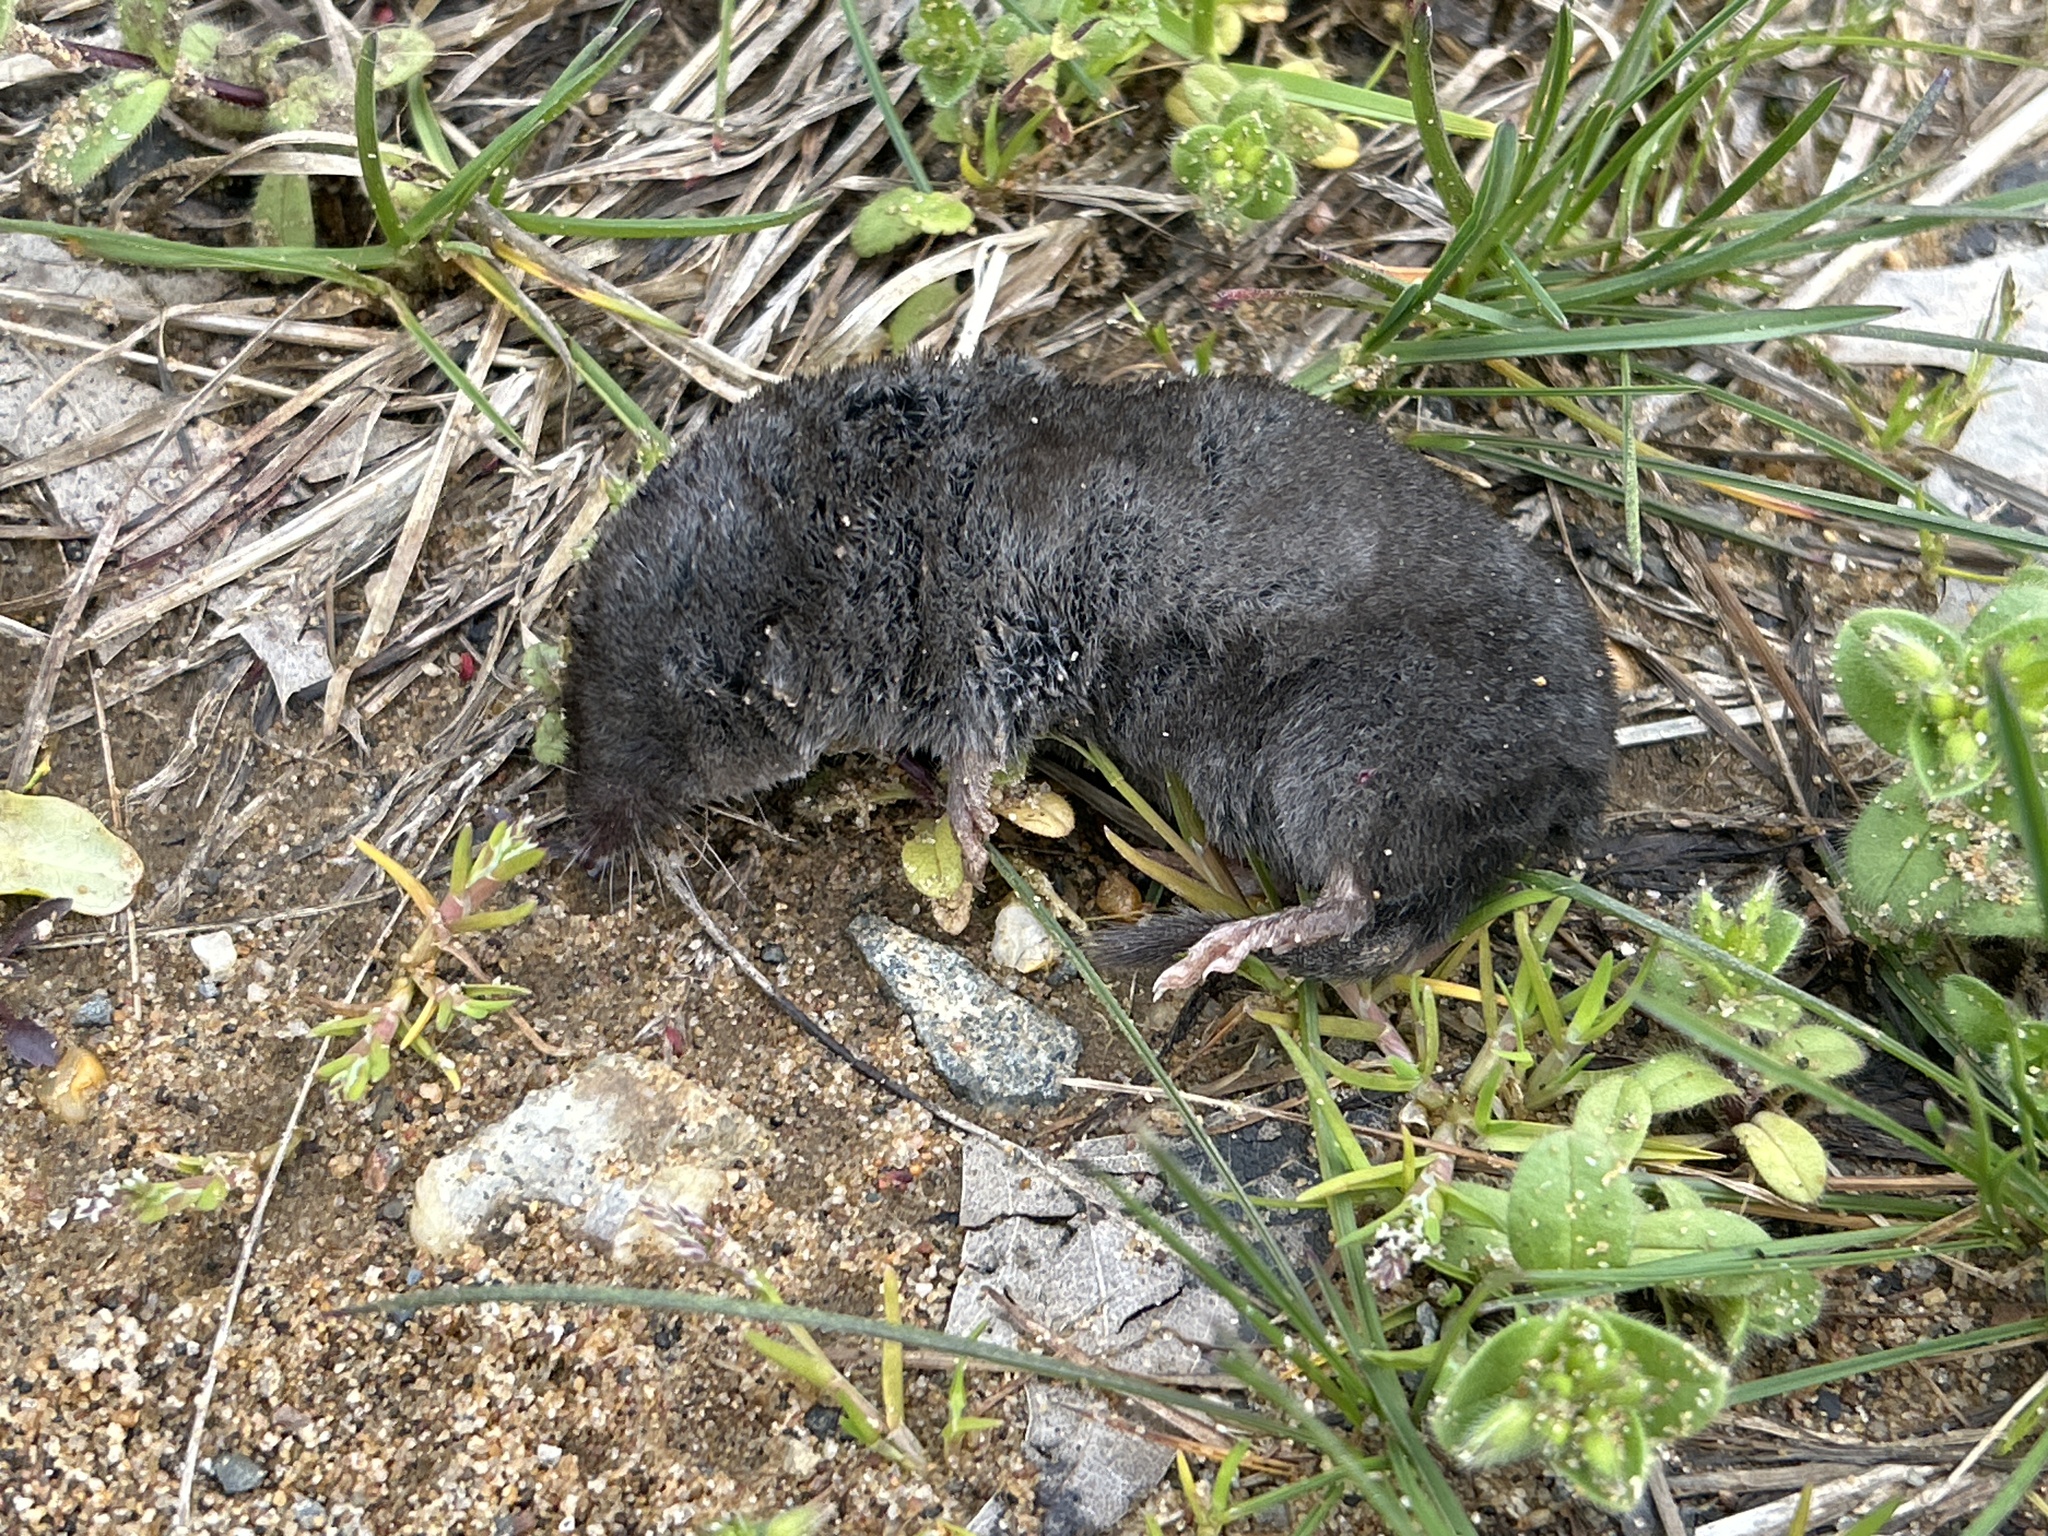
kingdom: Animalia
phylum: Chordata
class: Mammalia
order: Soricomorpha
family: Soricidae
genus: Blarina
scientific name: Blarina brevicauda
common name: Northern short-tailed shrew
